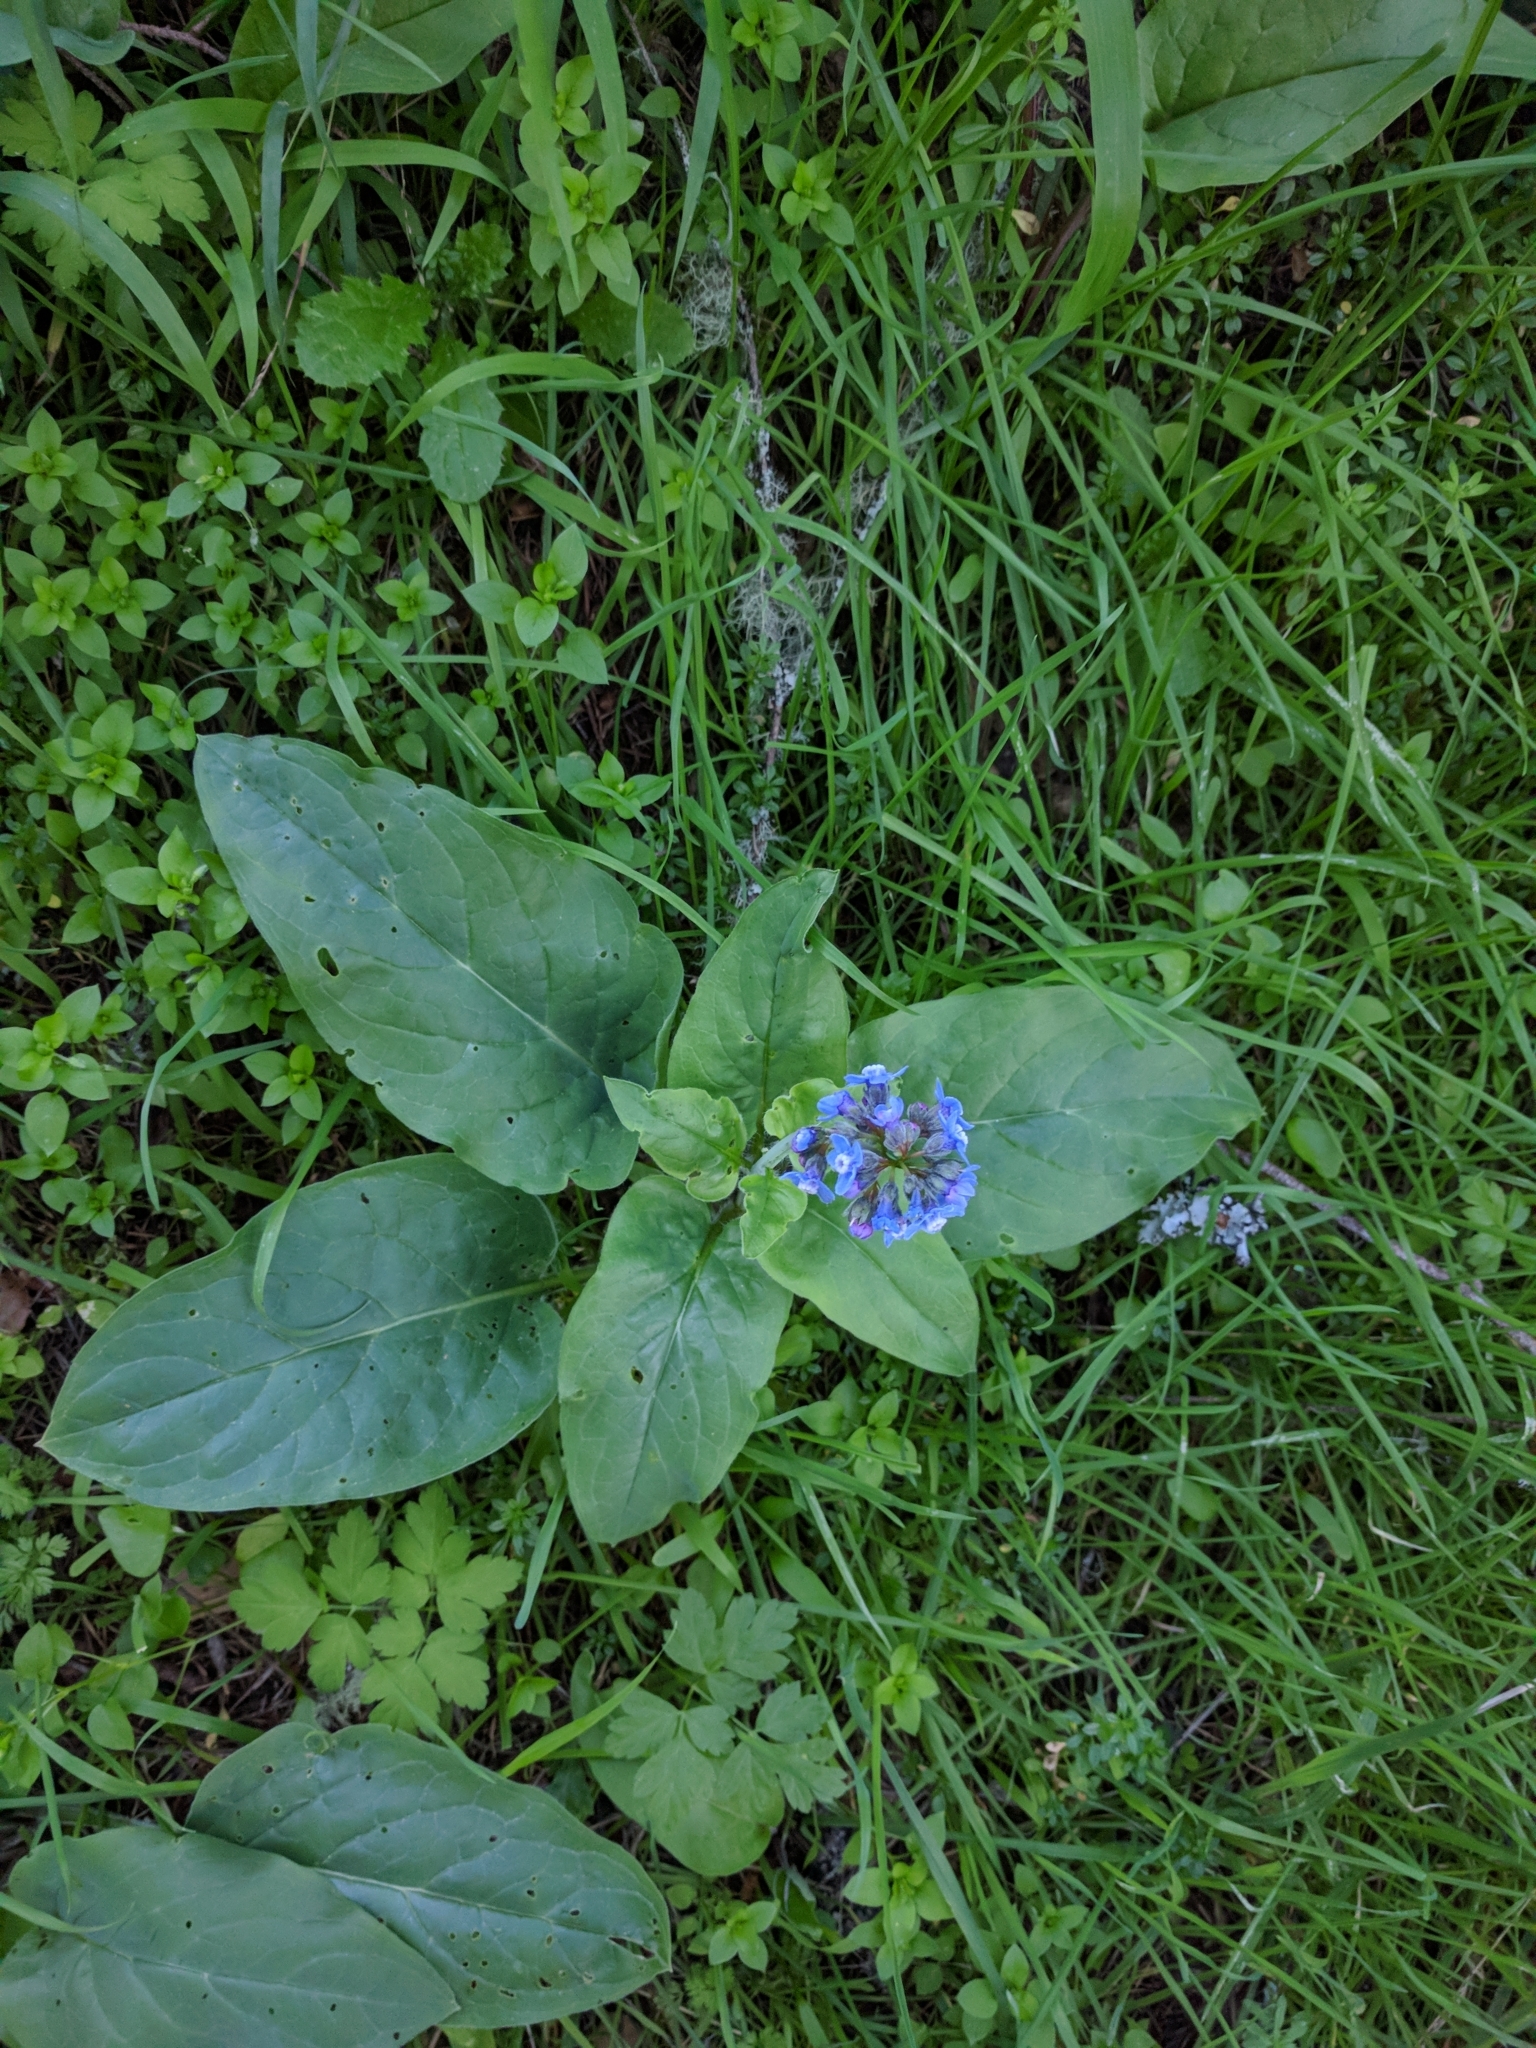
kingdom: Plantae
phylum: Tracheophyta
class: Magnoliopsida
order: Boraginales
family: Boraginaceae
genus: Adelinia
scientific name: Adelinia grande
